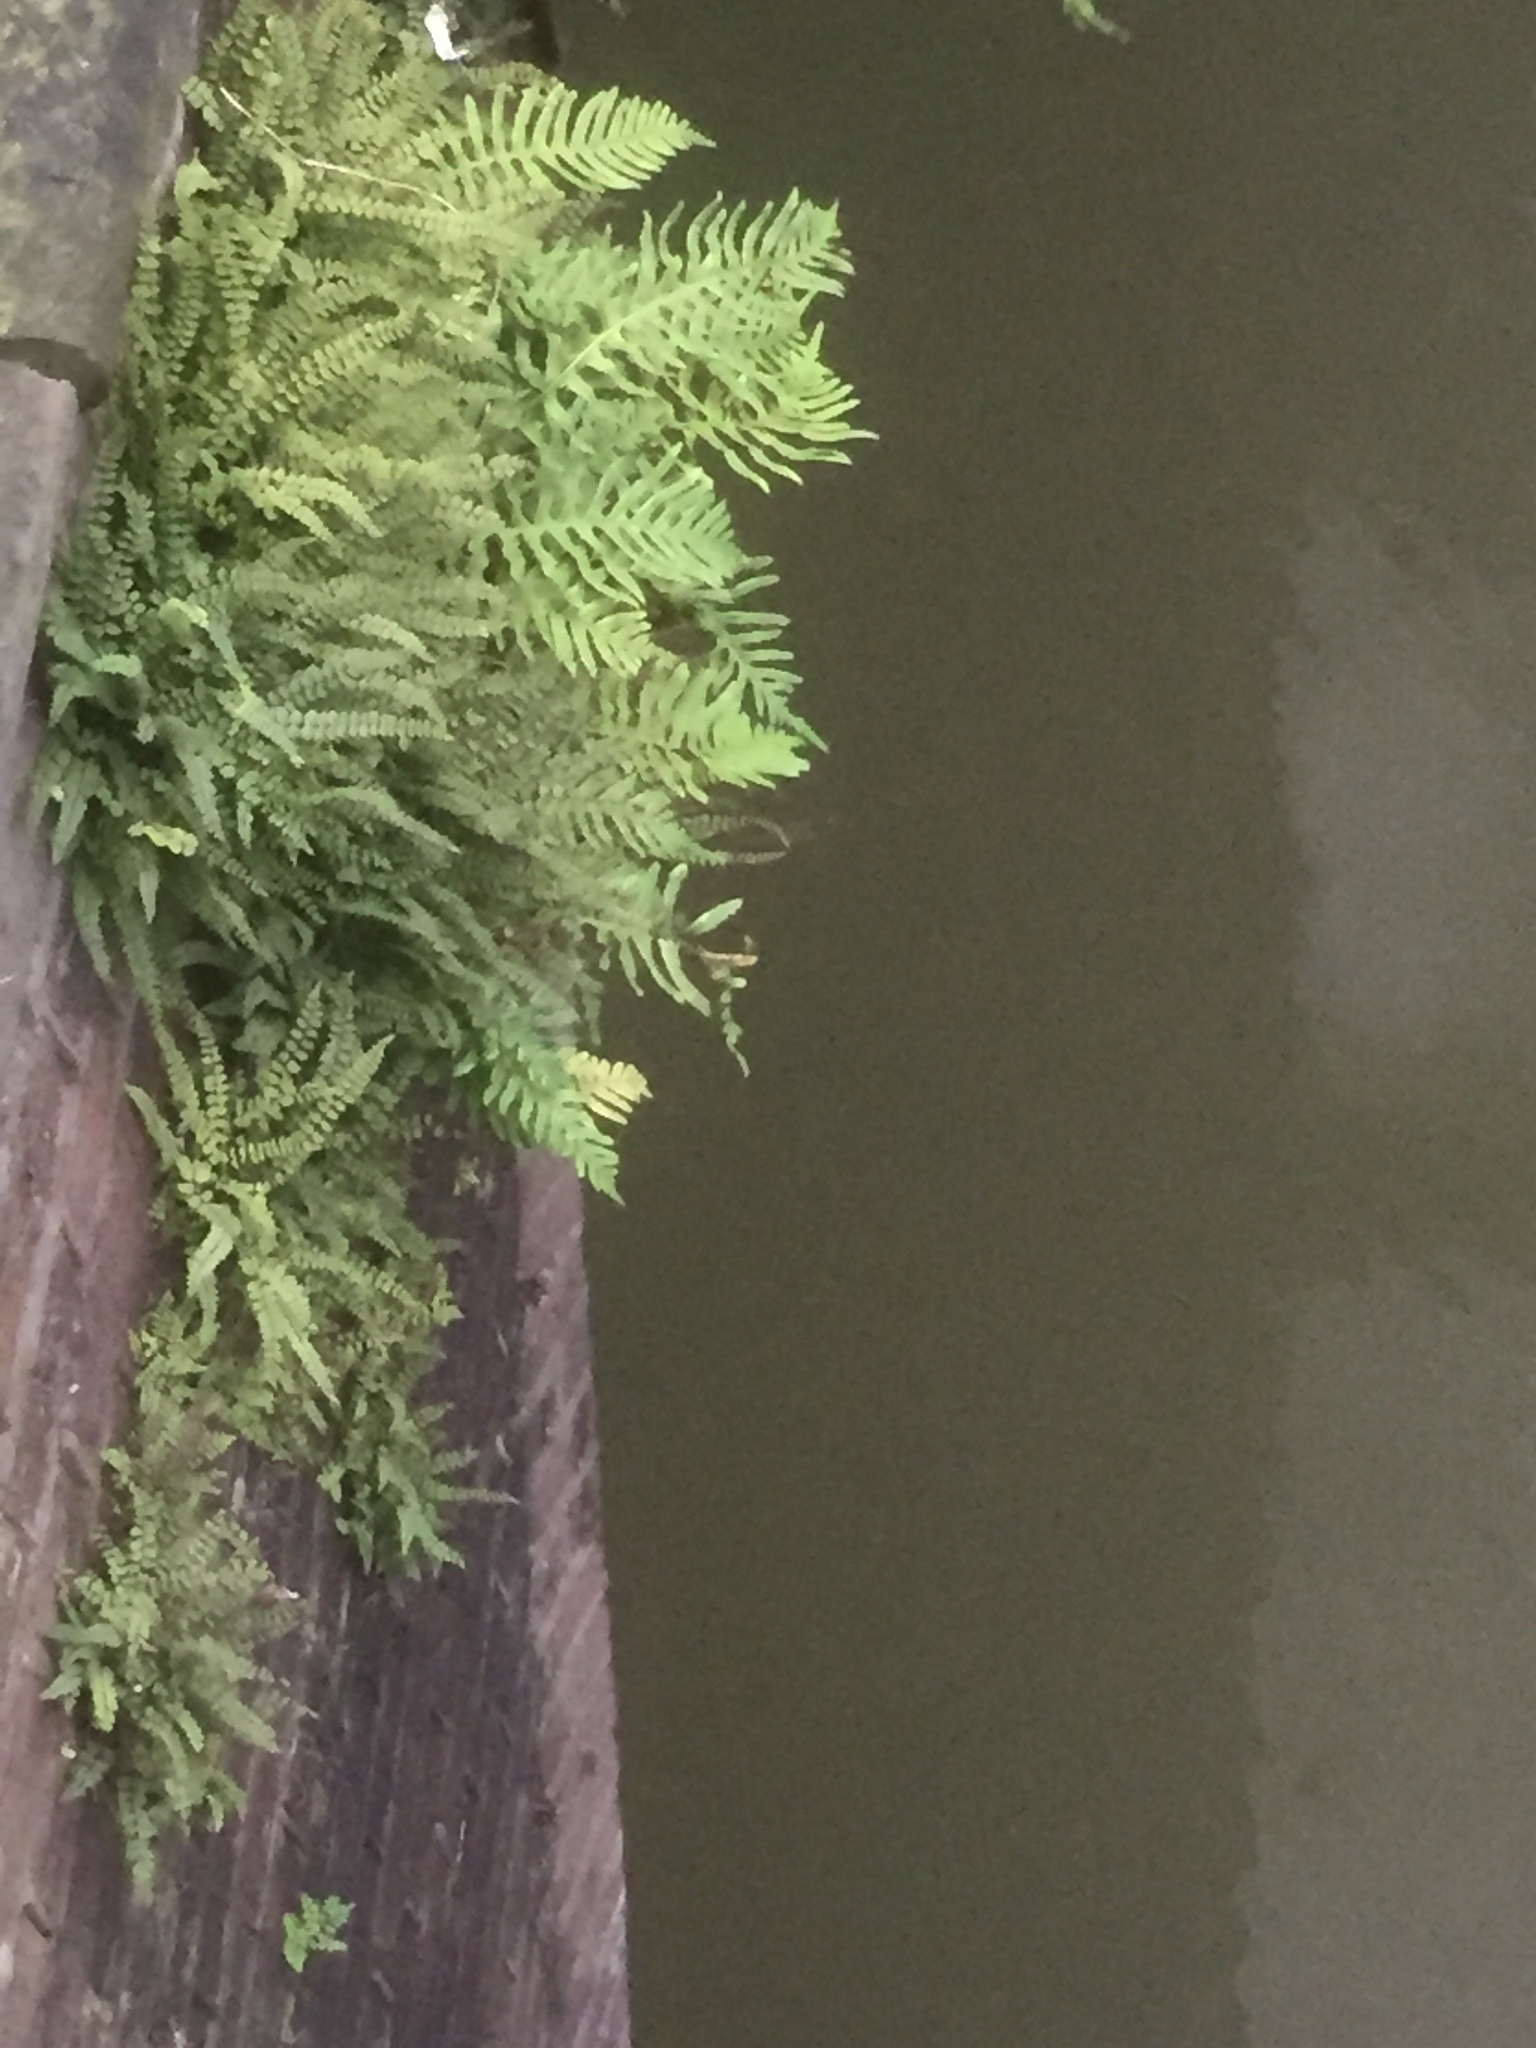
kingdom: Plantae
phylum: Tracheophyta
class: Polypodiopsida
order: Polypodiales
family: Aspleniaceae
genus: Asplenium
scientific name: Asplenium trichomanes
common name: Maidenhair spleenwort
